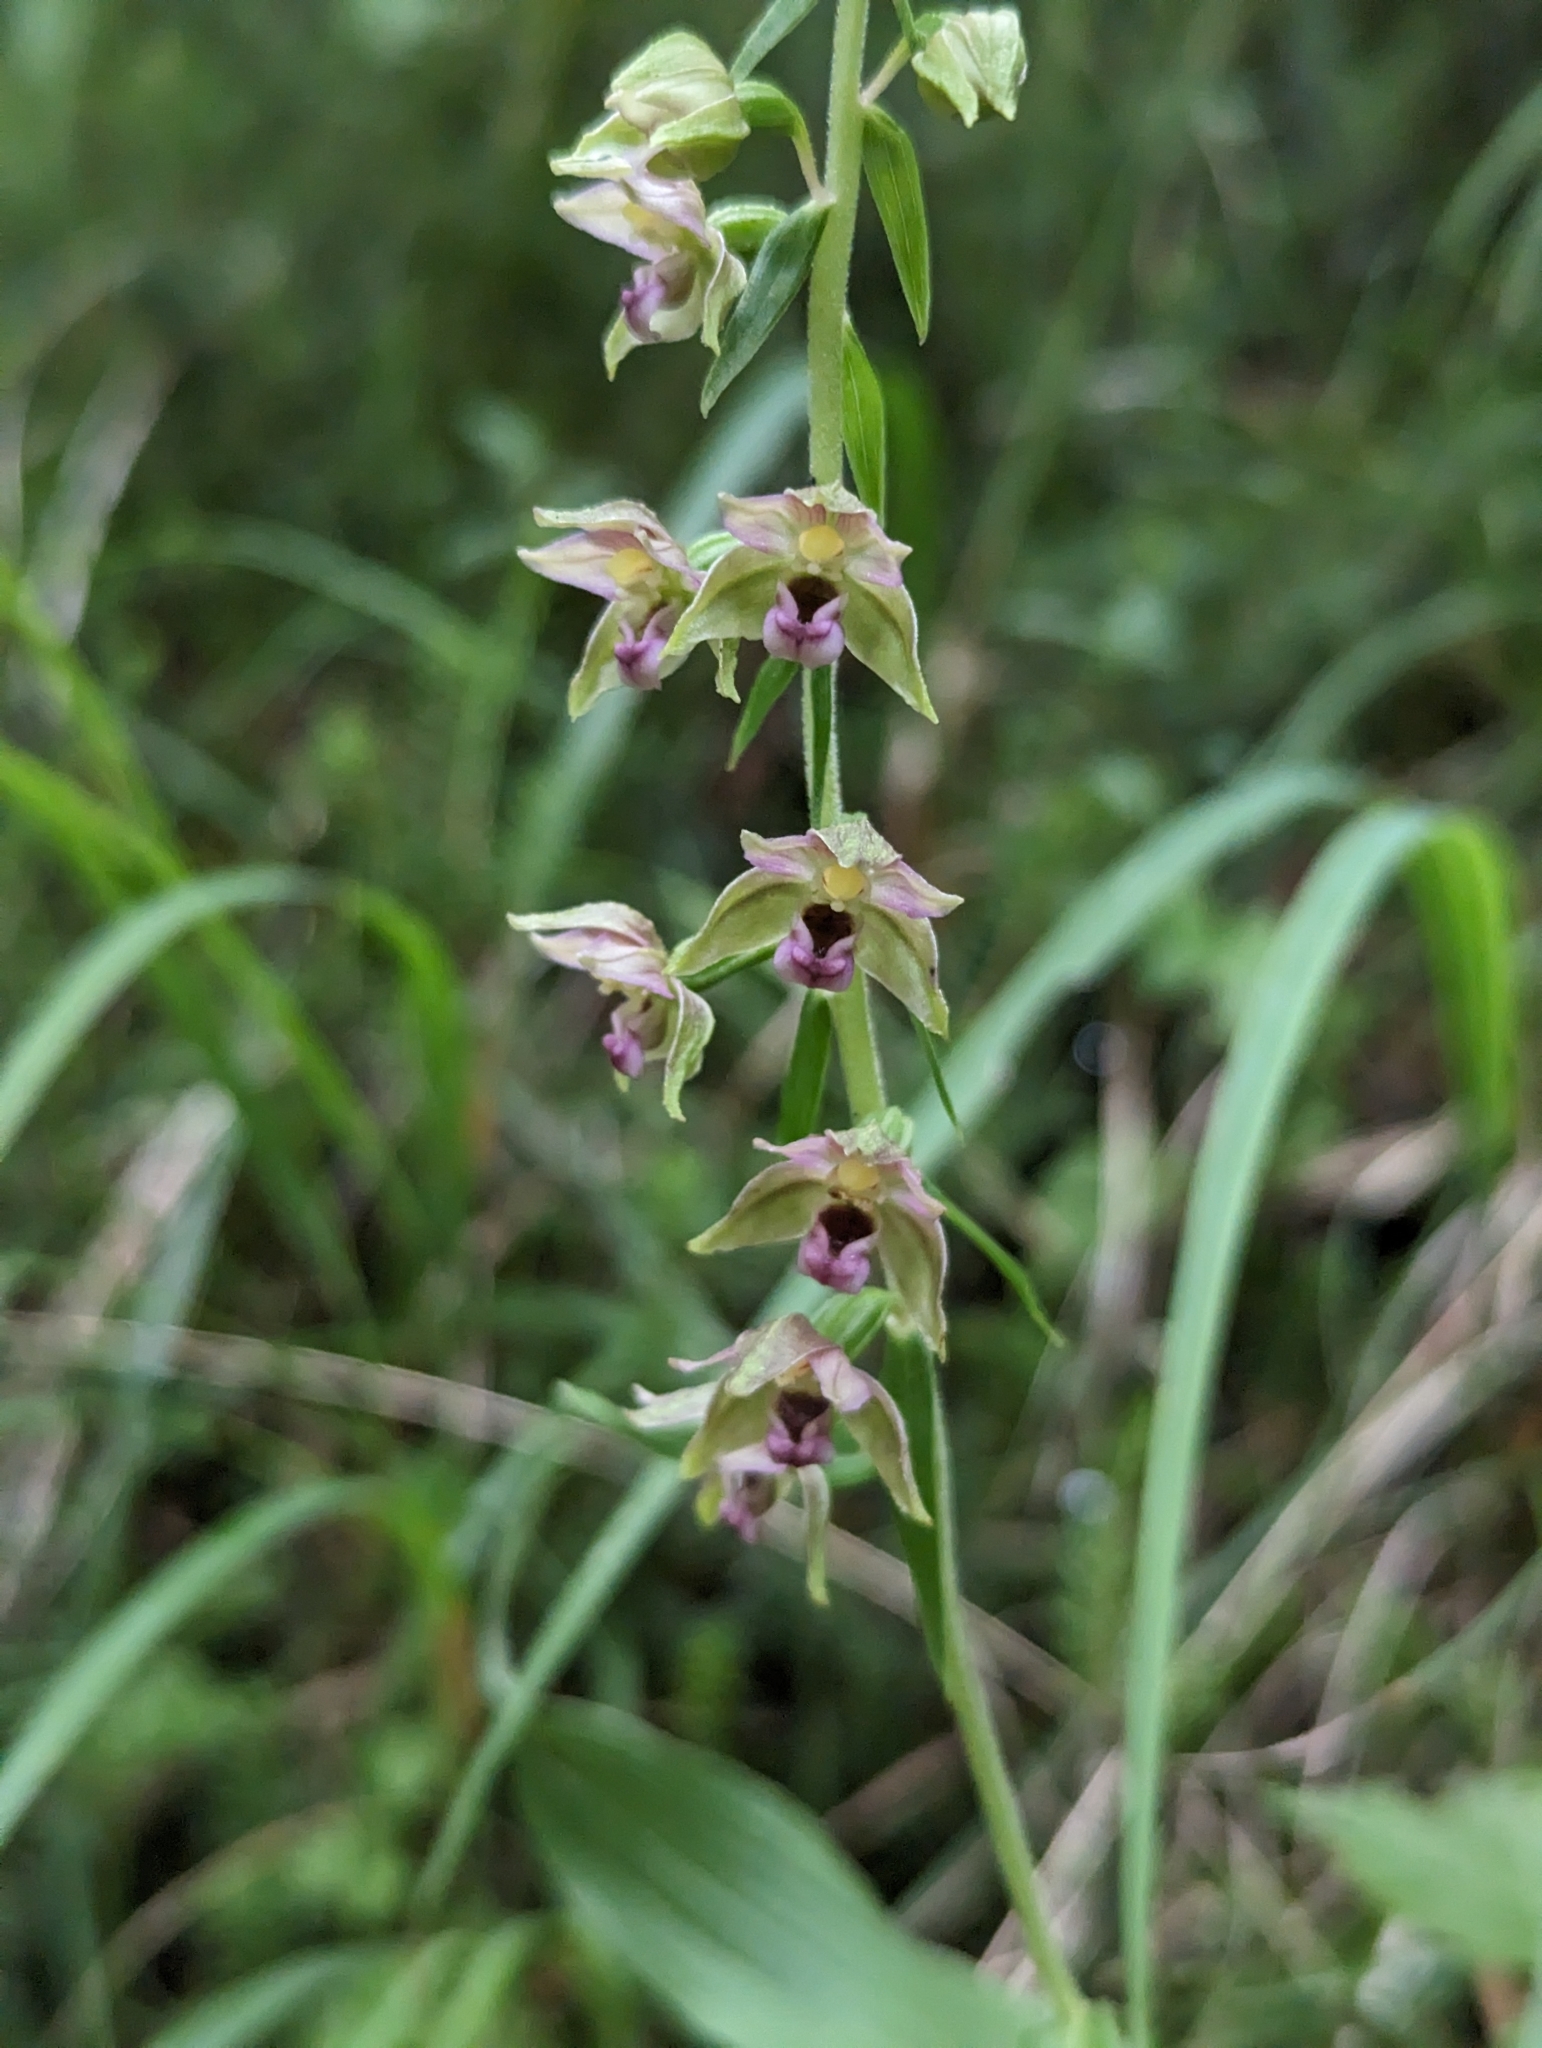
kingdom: Plantae
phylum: Tracheophyta
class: Liliopsida
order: Asparagales
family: Orchidaceae
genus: Epipactis
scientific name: Epipactis helleborine
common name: Broad-leaved helleborine
